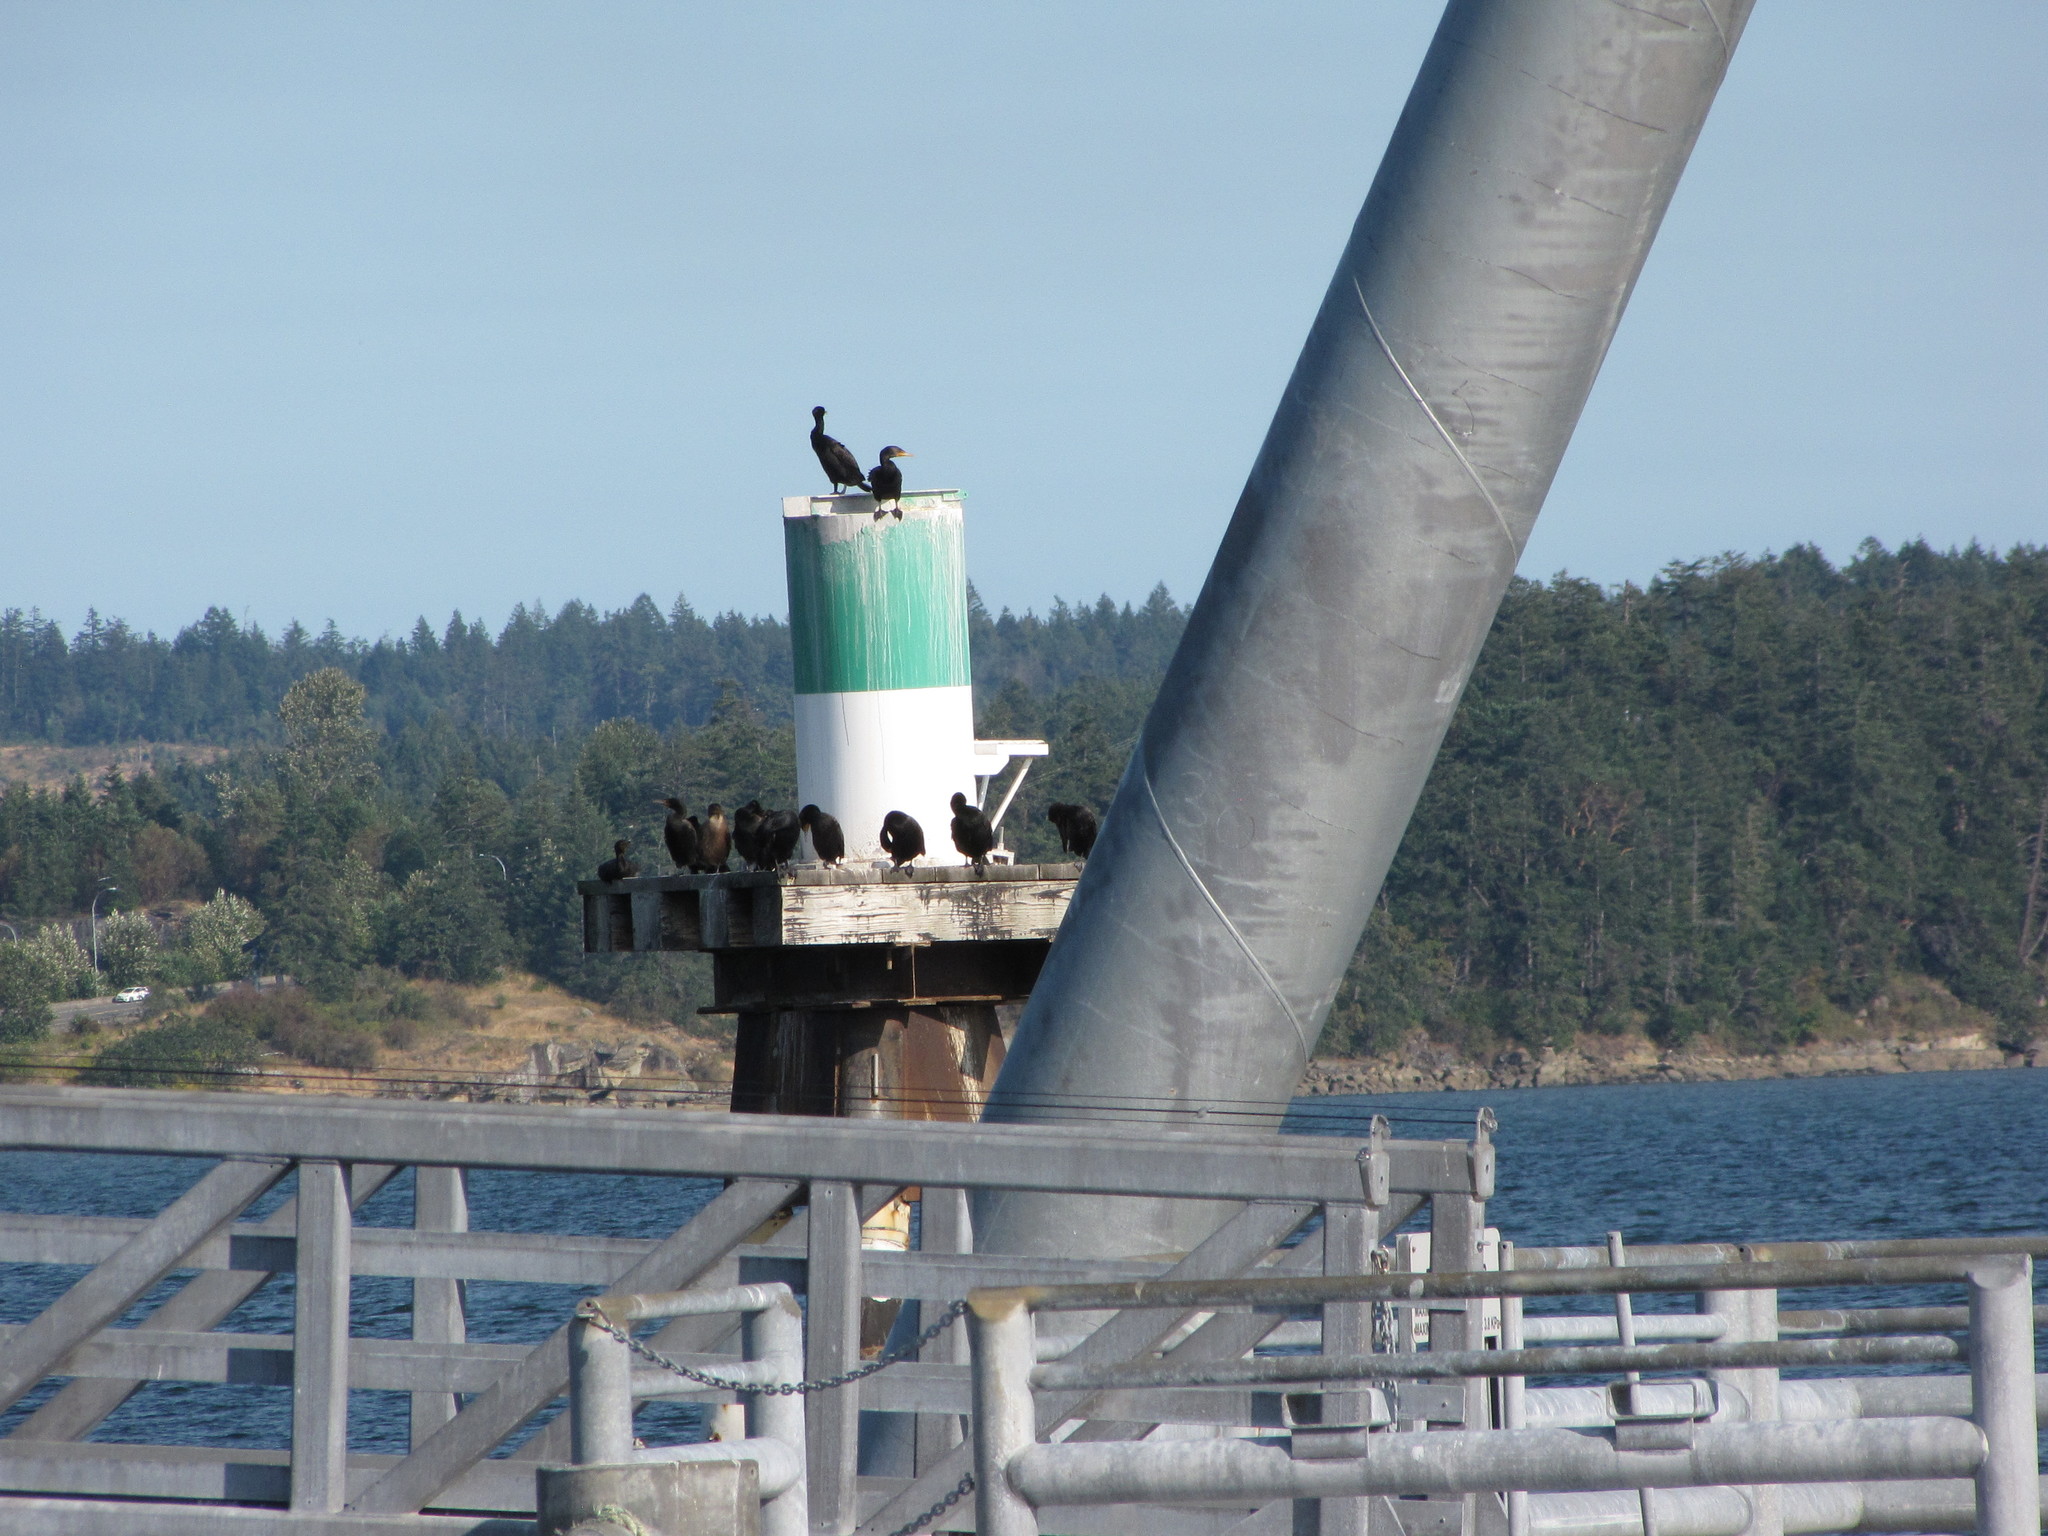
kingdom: Animalia
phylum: Chordata
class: Aves
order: Suliformes
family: Phalacrocoracidae
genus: Phalacrocorax
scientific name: Phalacrocorax auritus
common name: Double-crested cormorant
